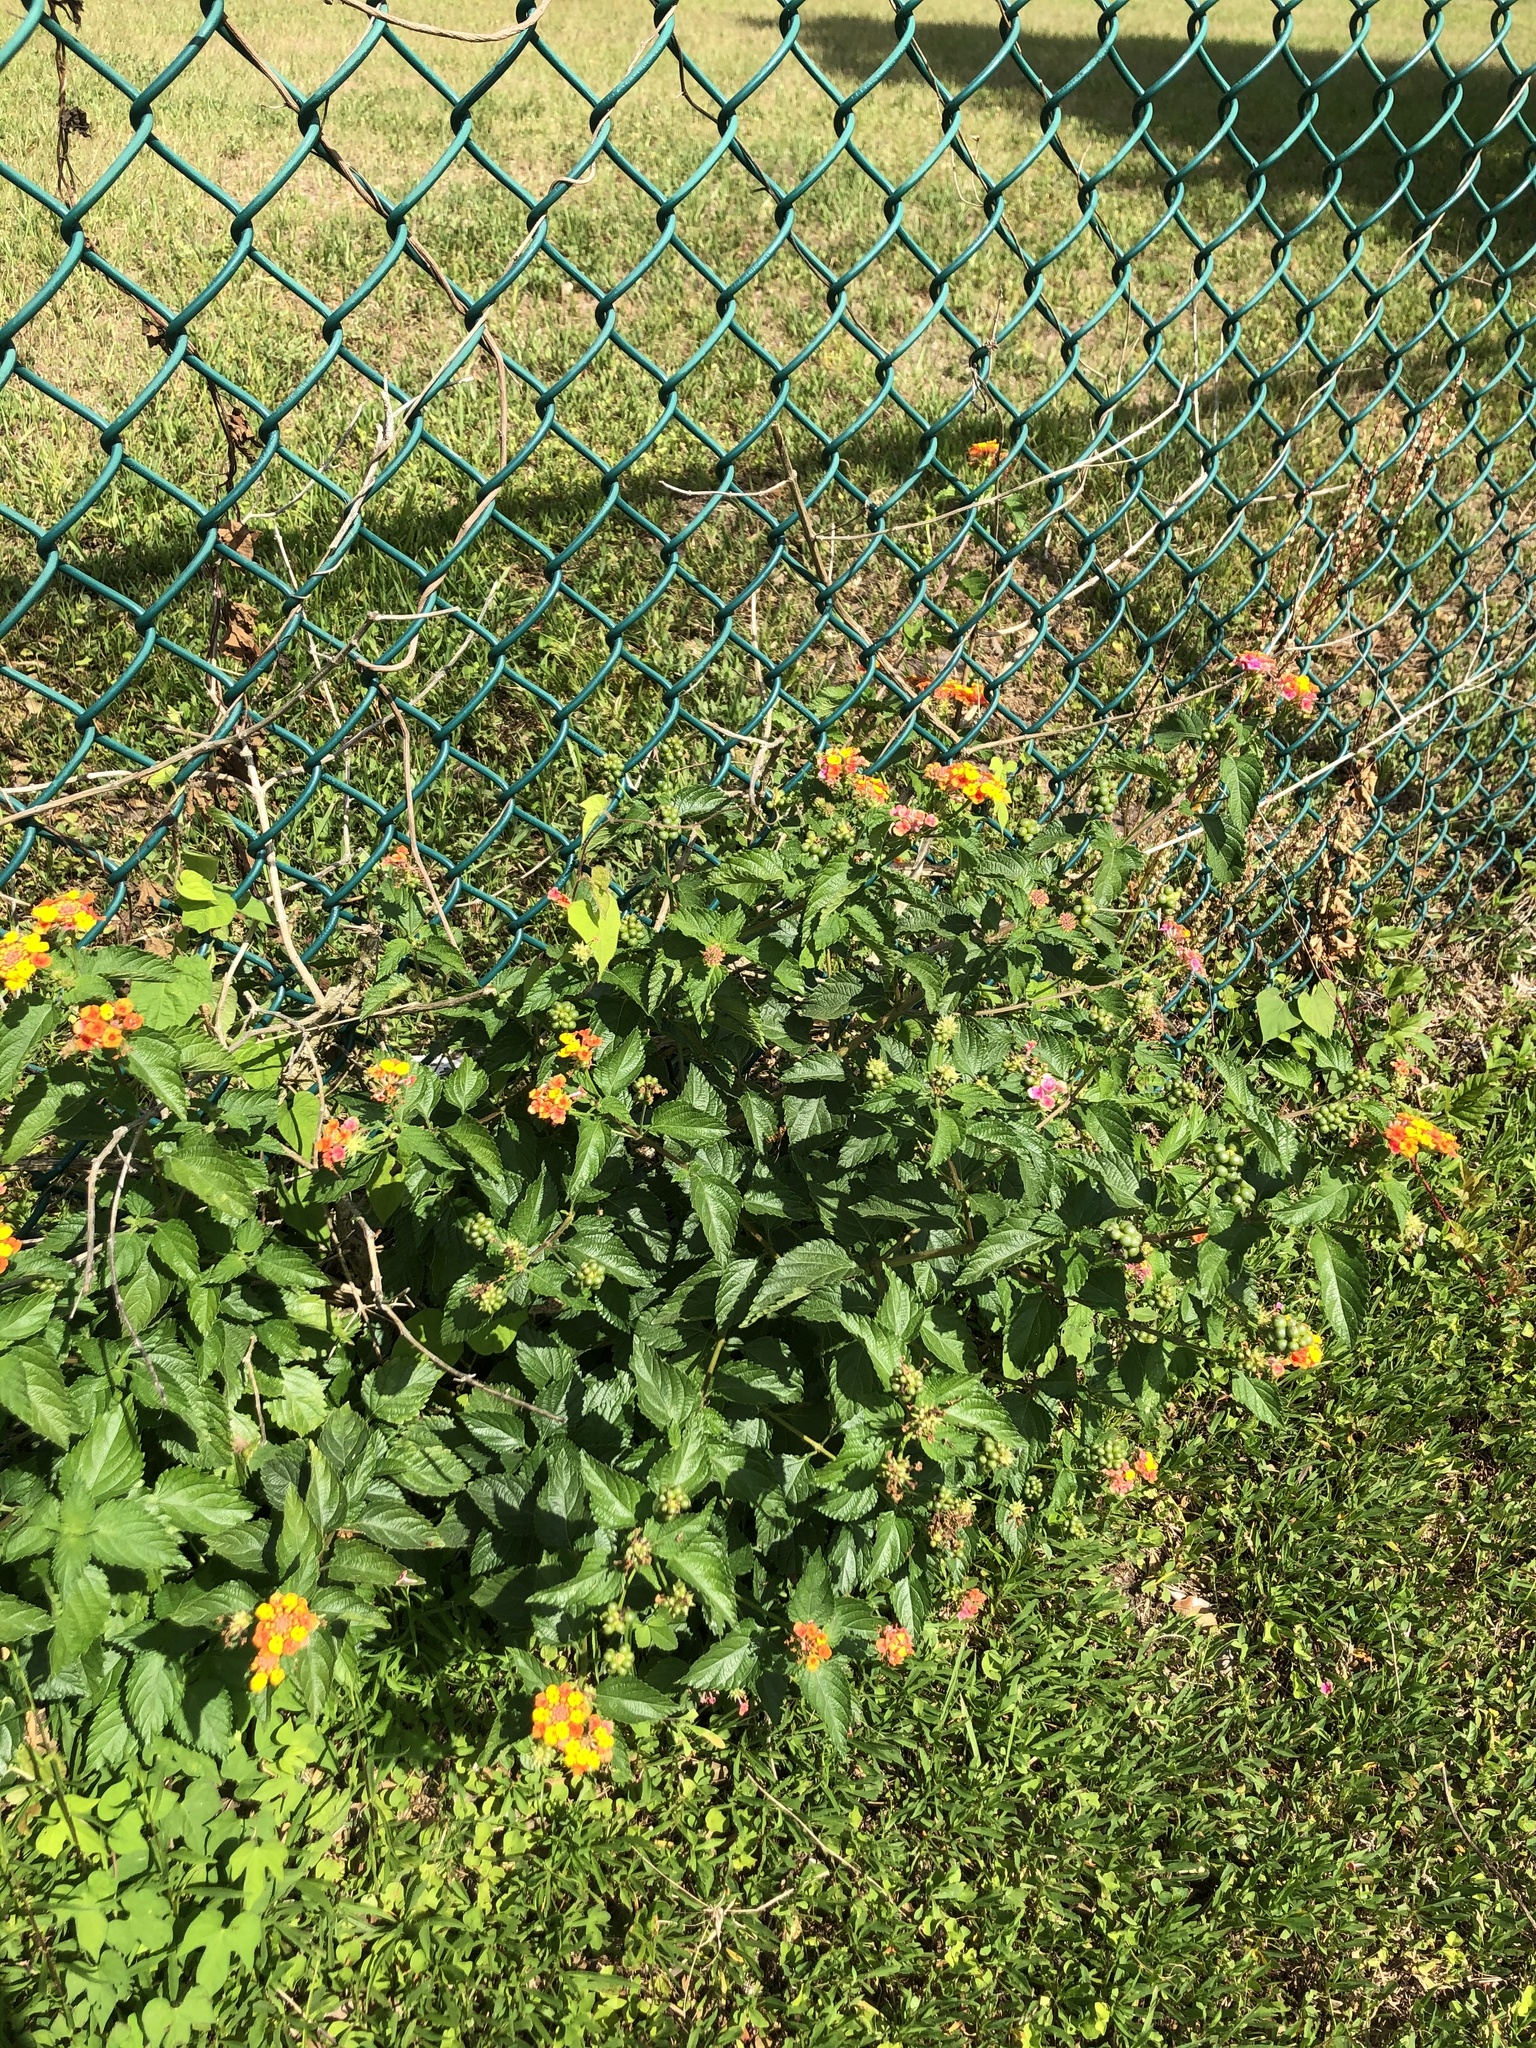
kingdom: Plantae
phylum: Tracheophyta
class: Magnoliopsida
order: Lamiales
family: Verbenaceae
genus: Lantana
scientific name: Lantana camara
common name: Lantana
